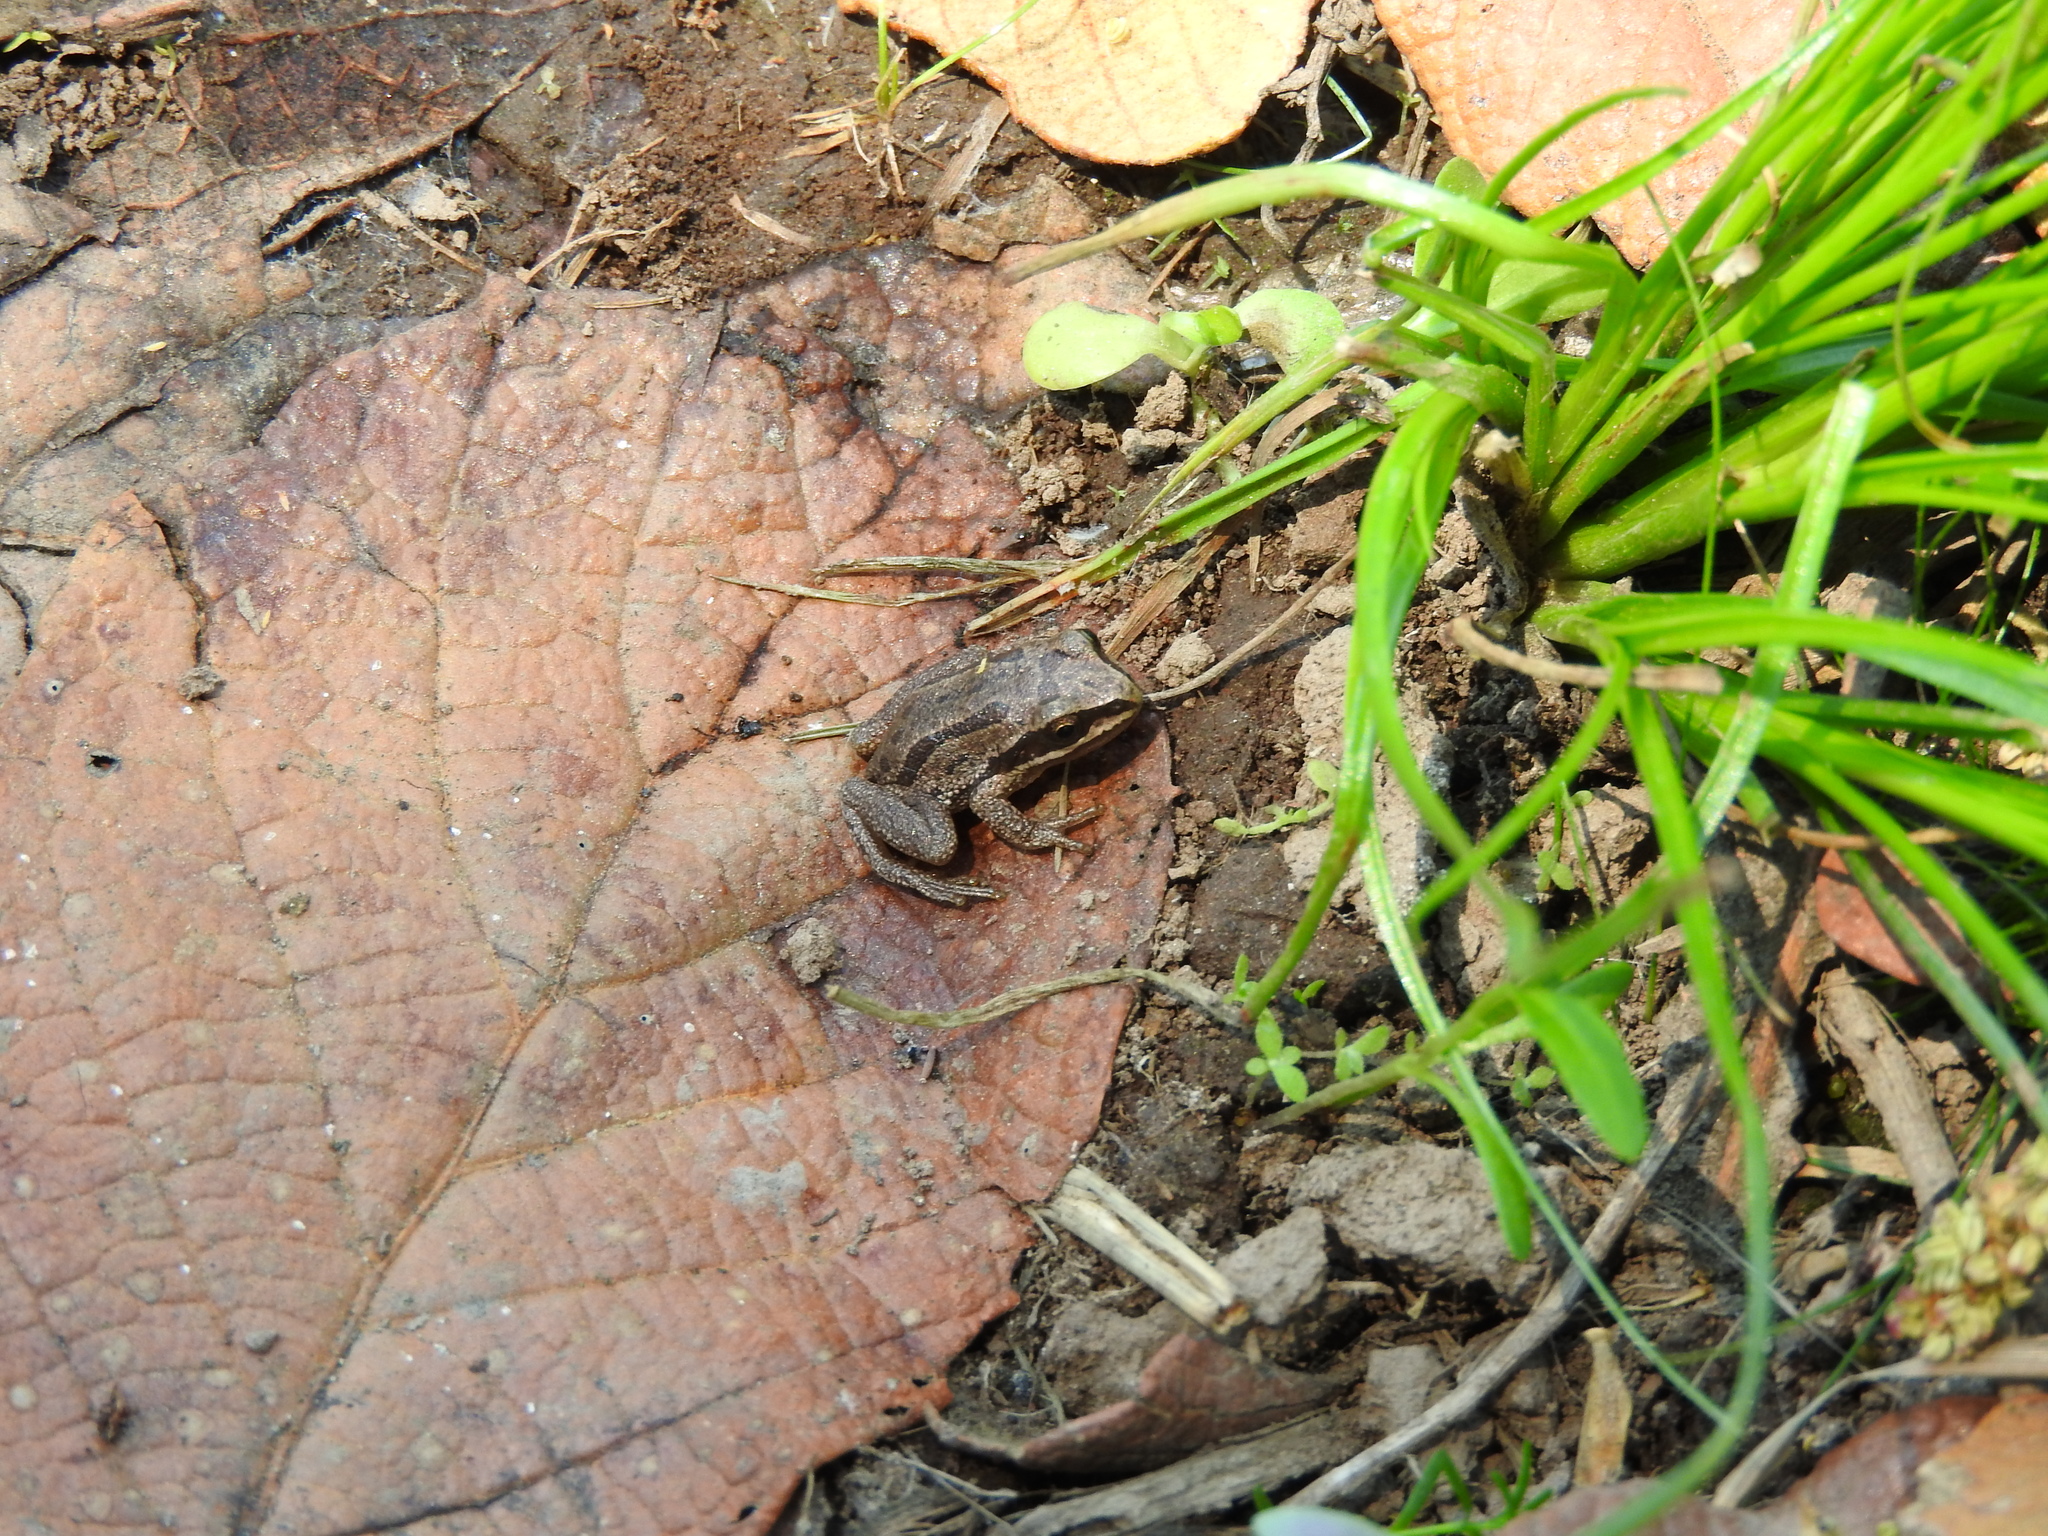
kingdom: Animalia
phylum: Chordata
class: Amphibia
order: Anura
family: Hylidae
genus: Dryophytes
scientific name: Dryophytes eximius
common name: Mountain treefrog
